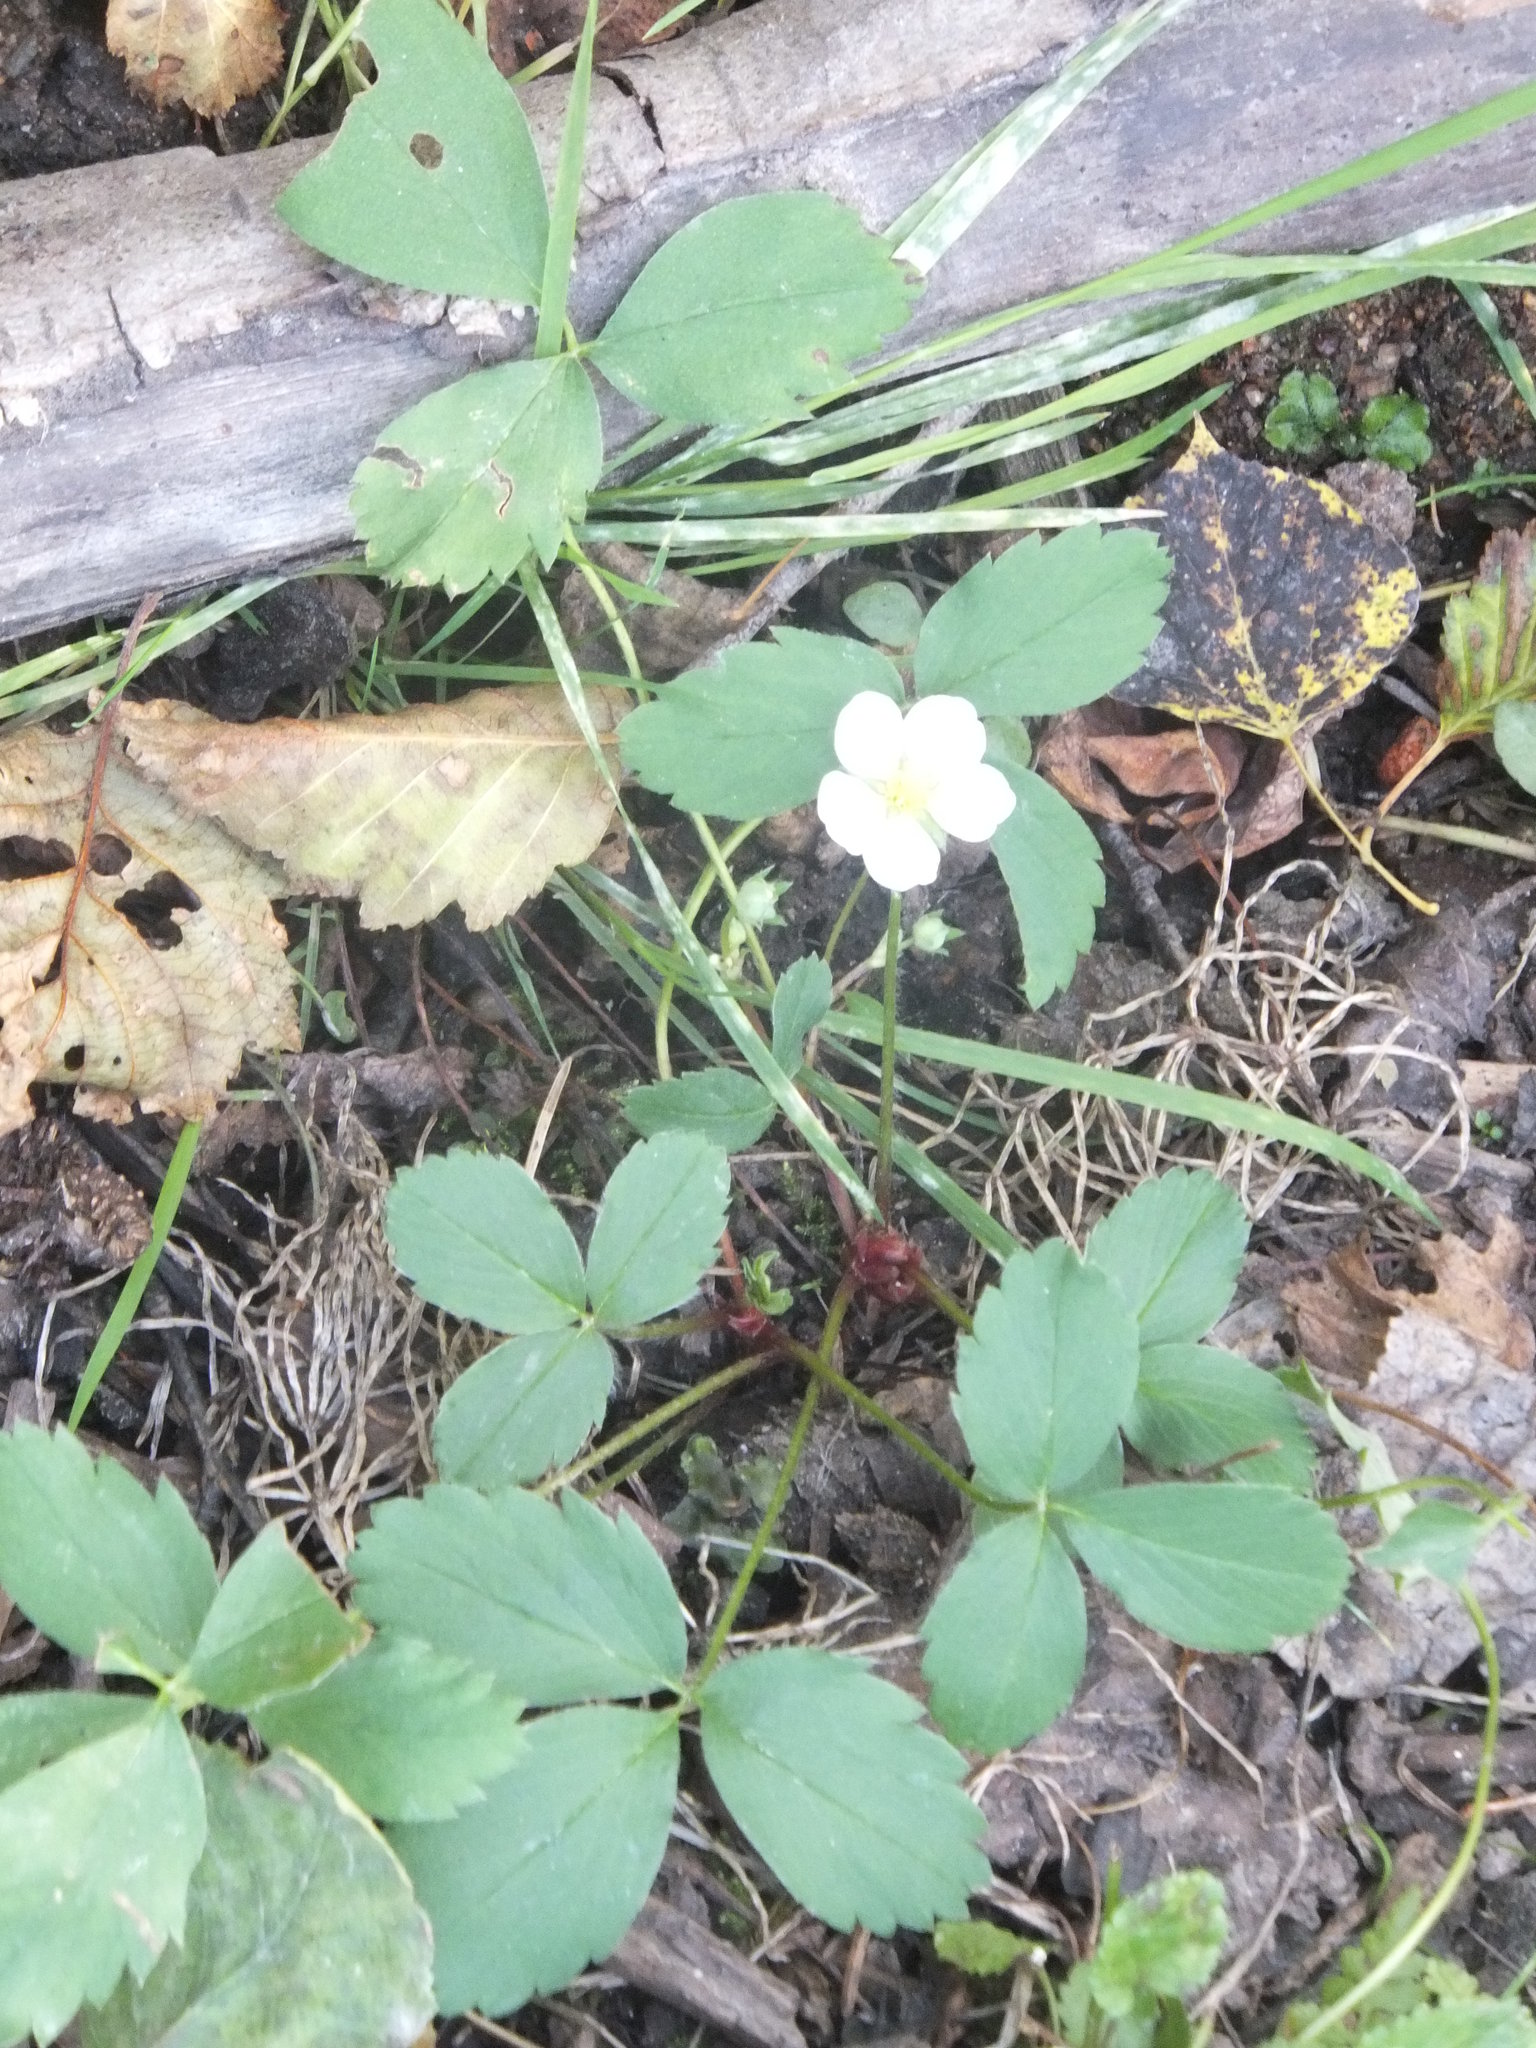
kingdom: Plantae
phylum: Tracheophyta
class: Magnoliopsida
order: Rosales
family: Rosaceae
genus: Fragaria
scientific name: Fragaria virginiana
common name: Thickleaved wild strawberry
